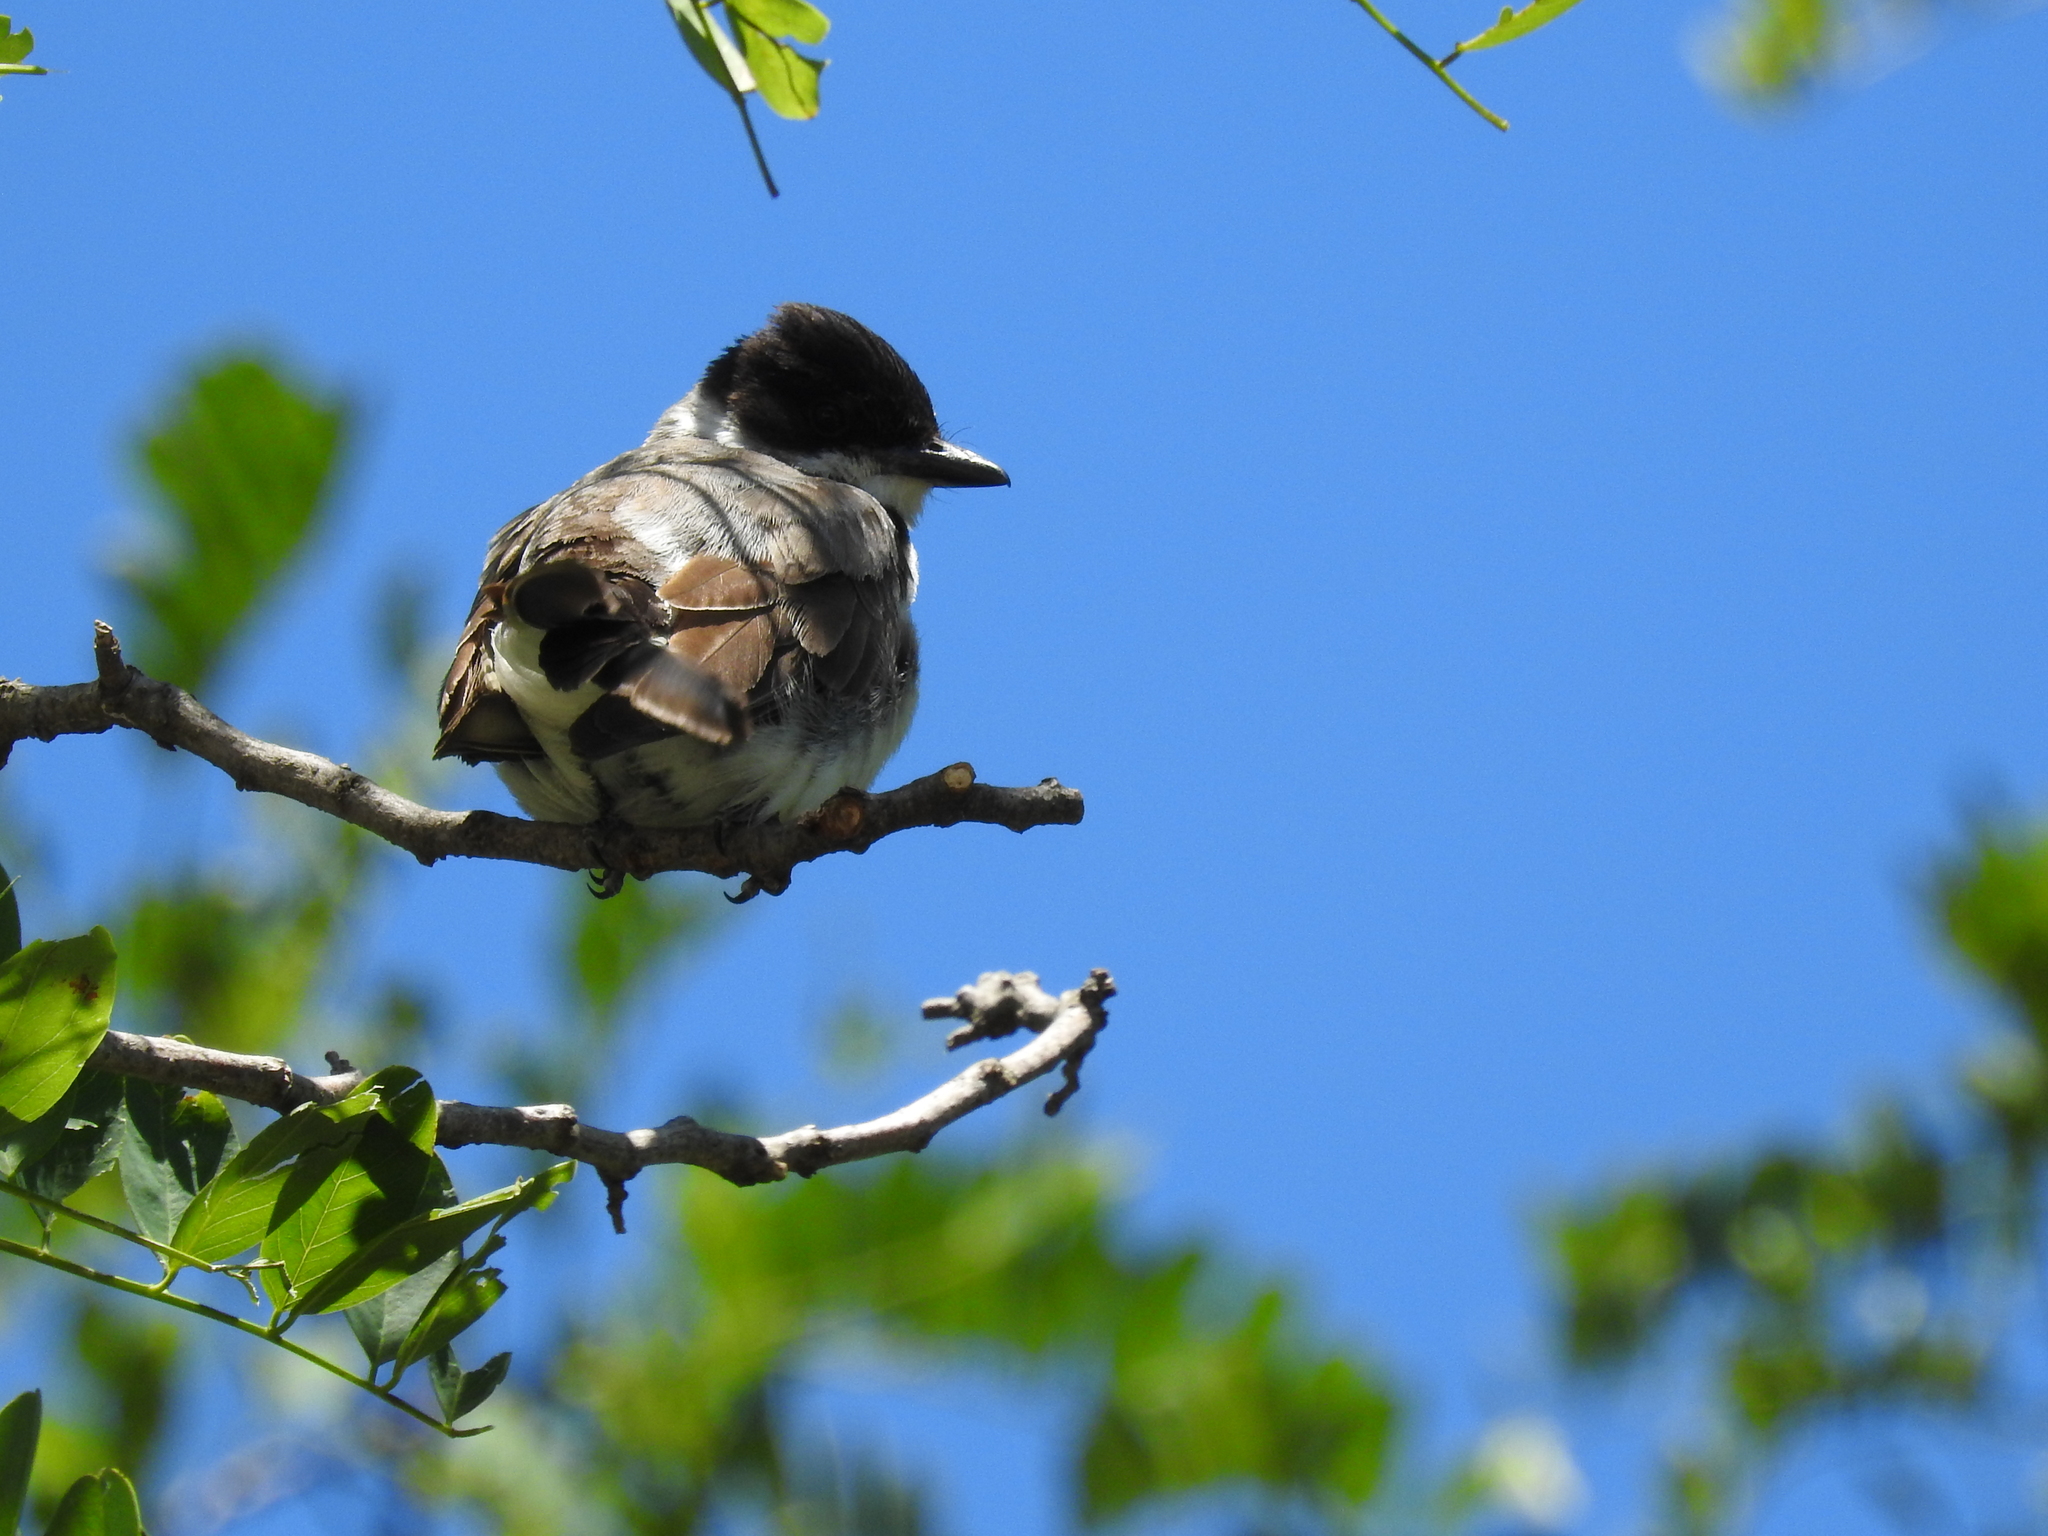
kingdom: Animalia
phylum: Chordata
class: Aves
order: Passeriformes
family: Tyrannidae
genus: Tyrannus
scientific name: Tyrannus savana
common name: Fork-tailed flycatcher
